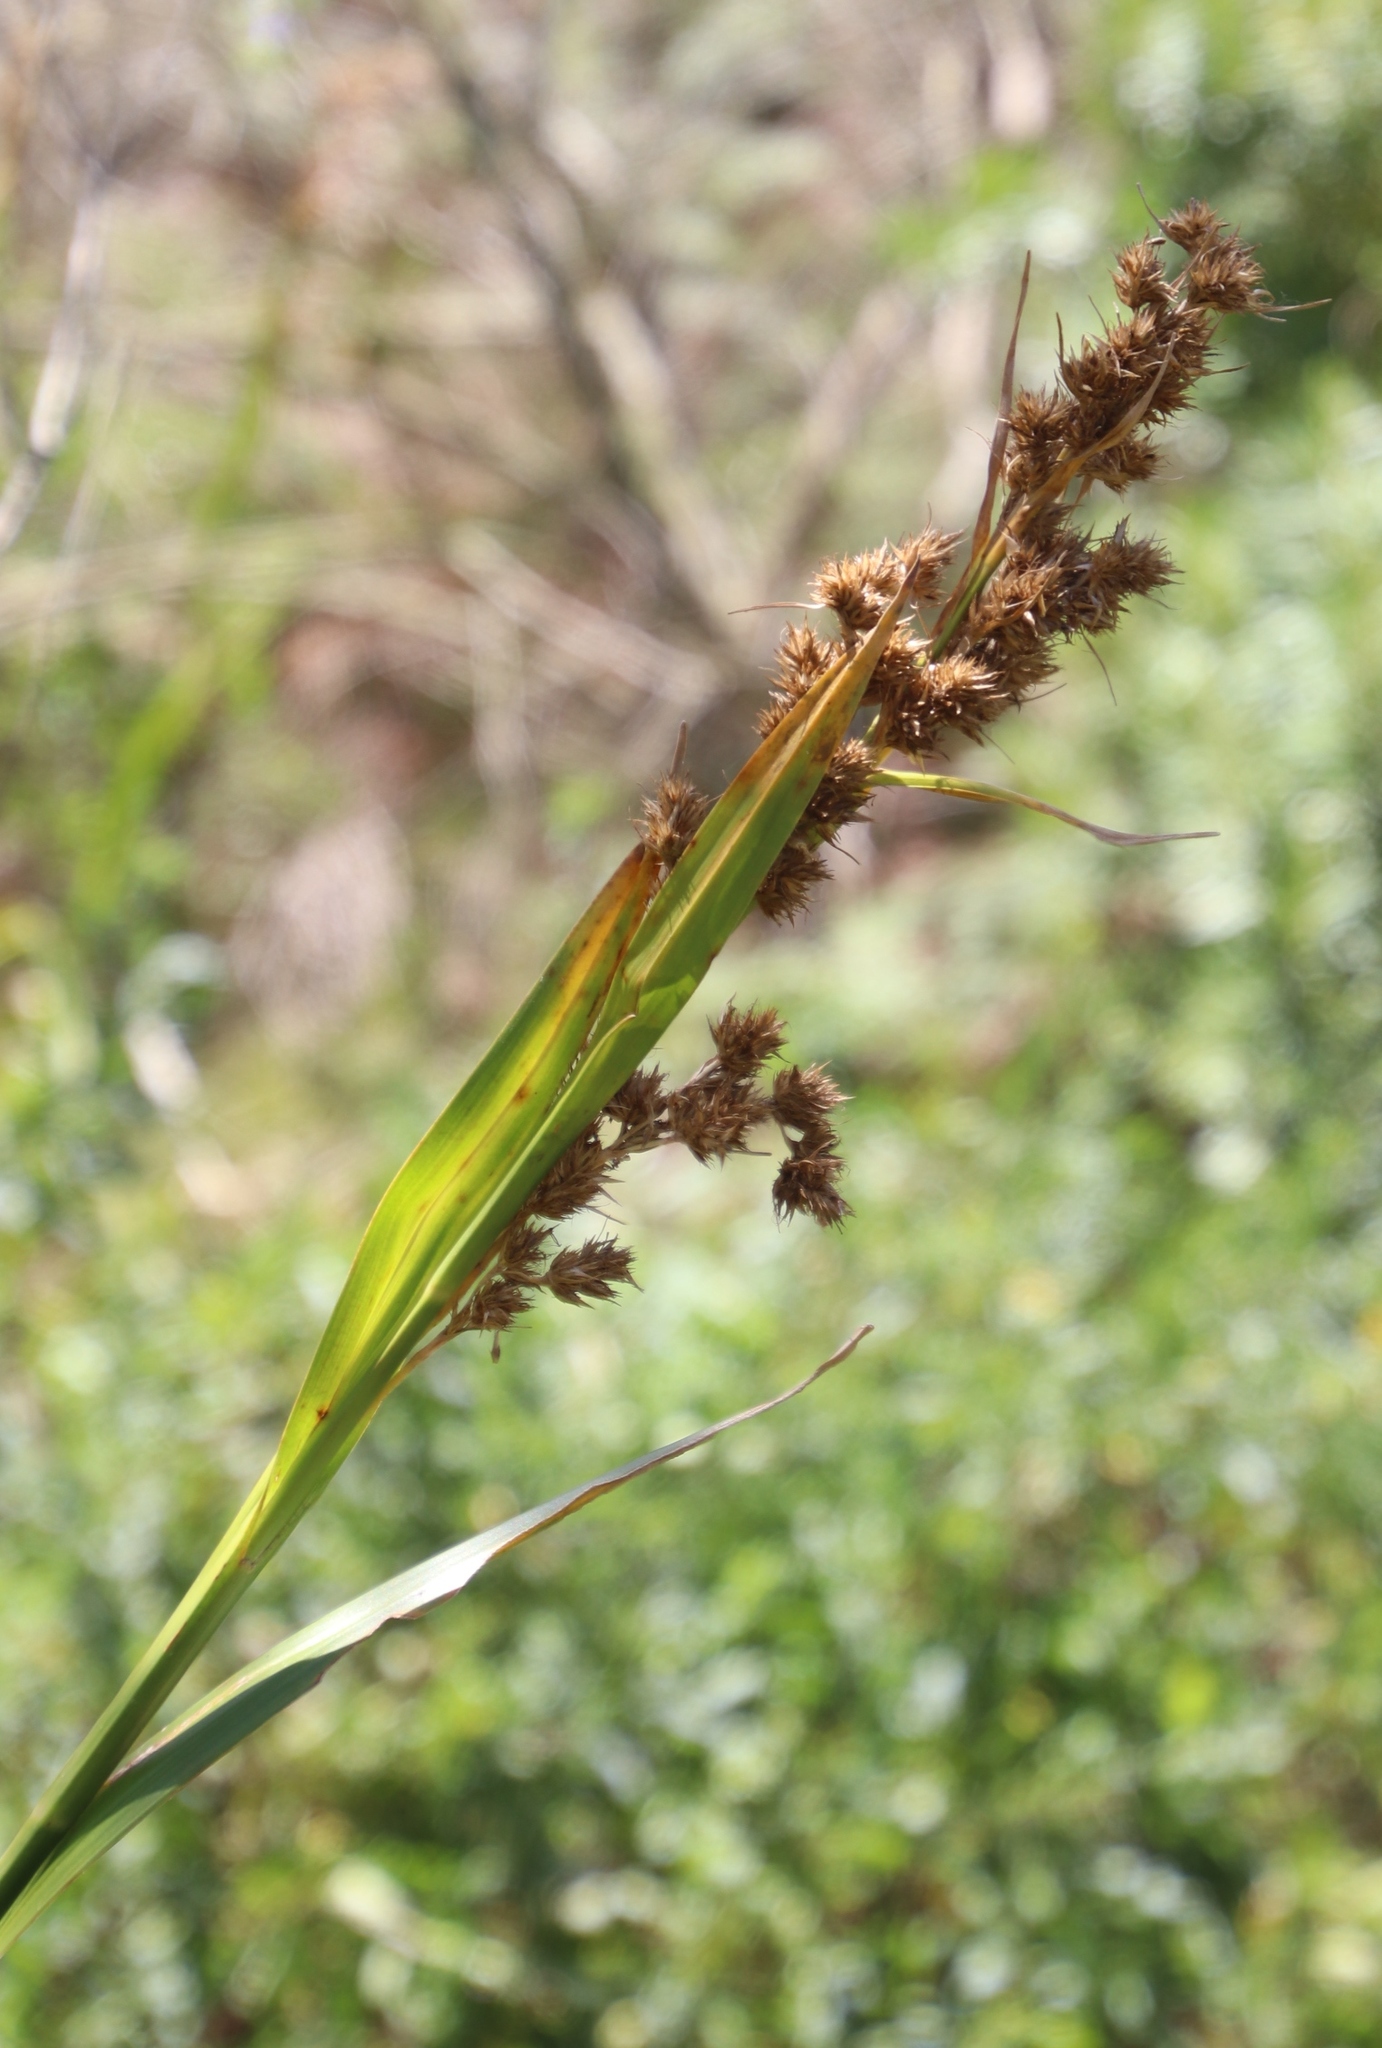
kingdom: Plantae
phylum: Tracheophyta
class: Liliopsida
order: Poales
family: Cyperaceae
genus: Carpha
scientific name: Carpha glomerata
